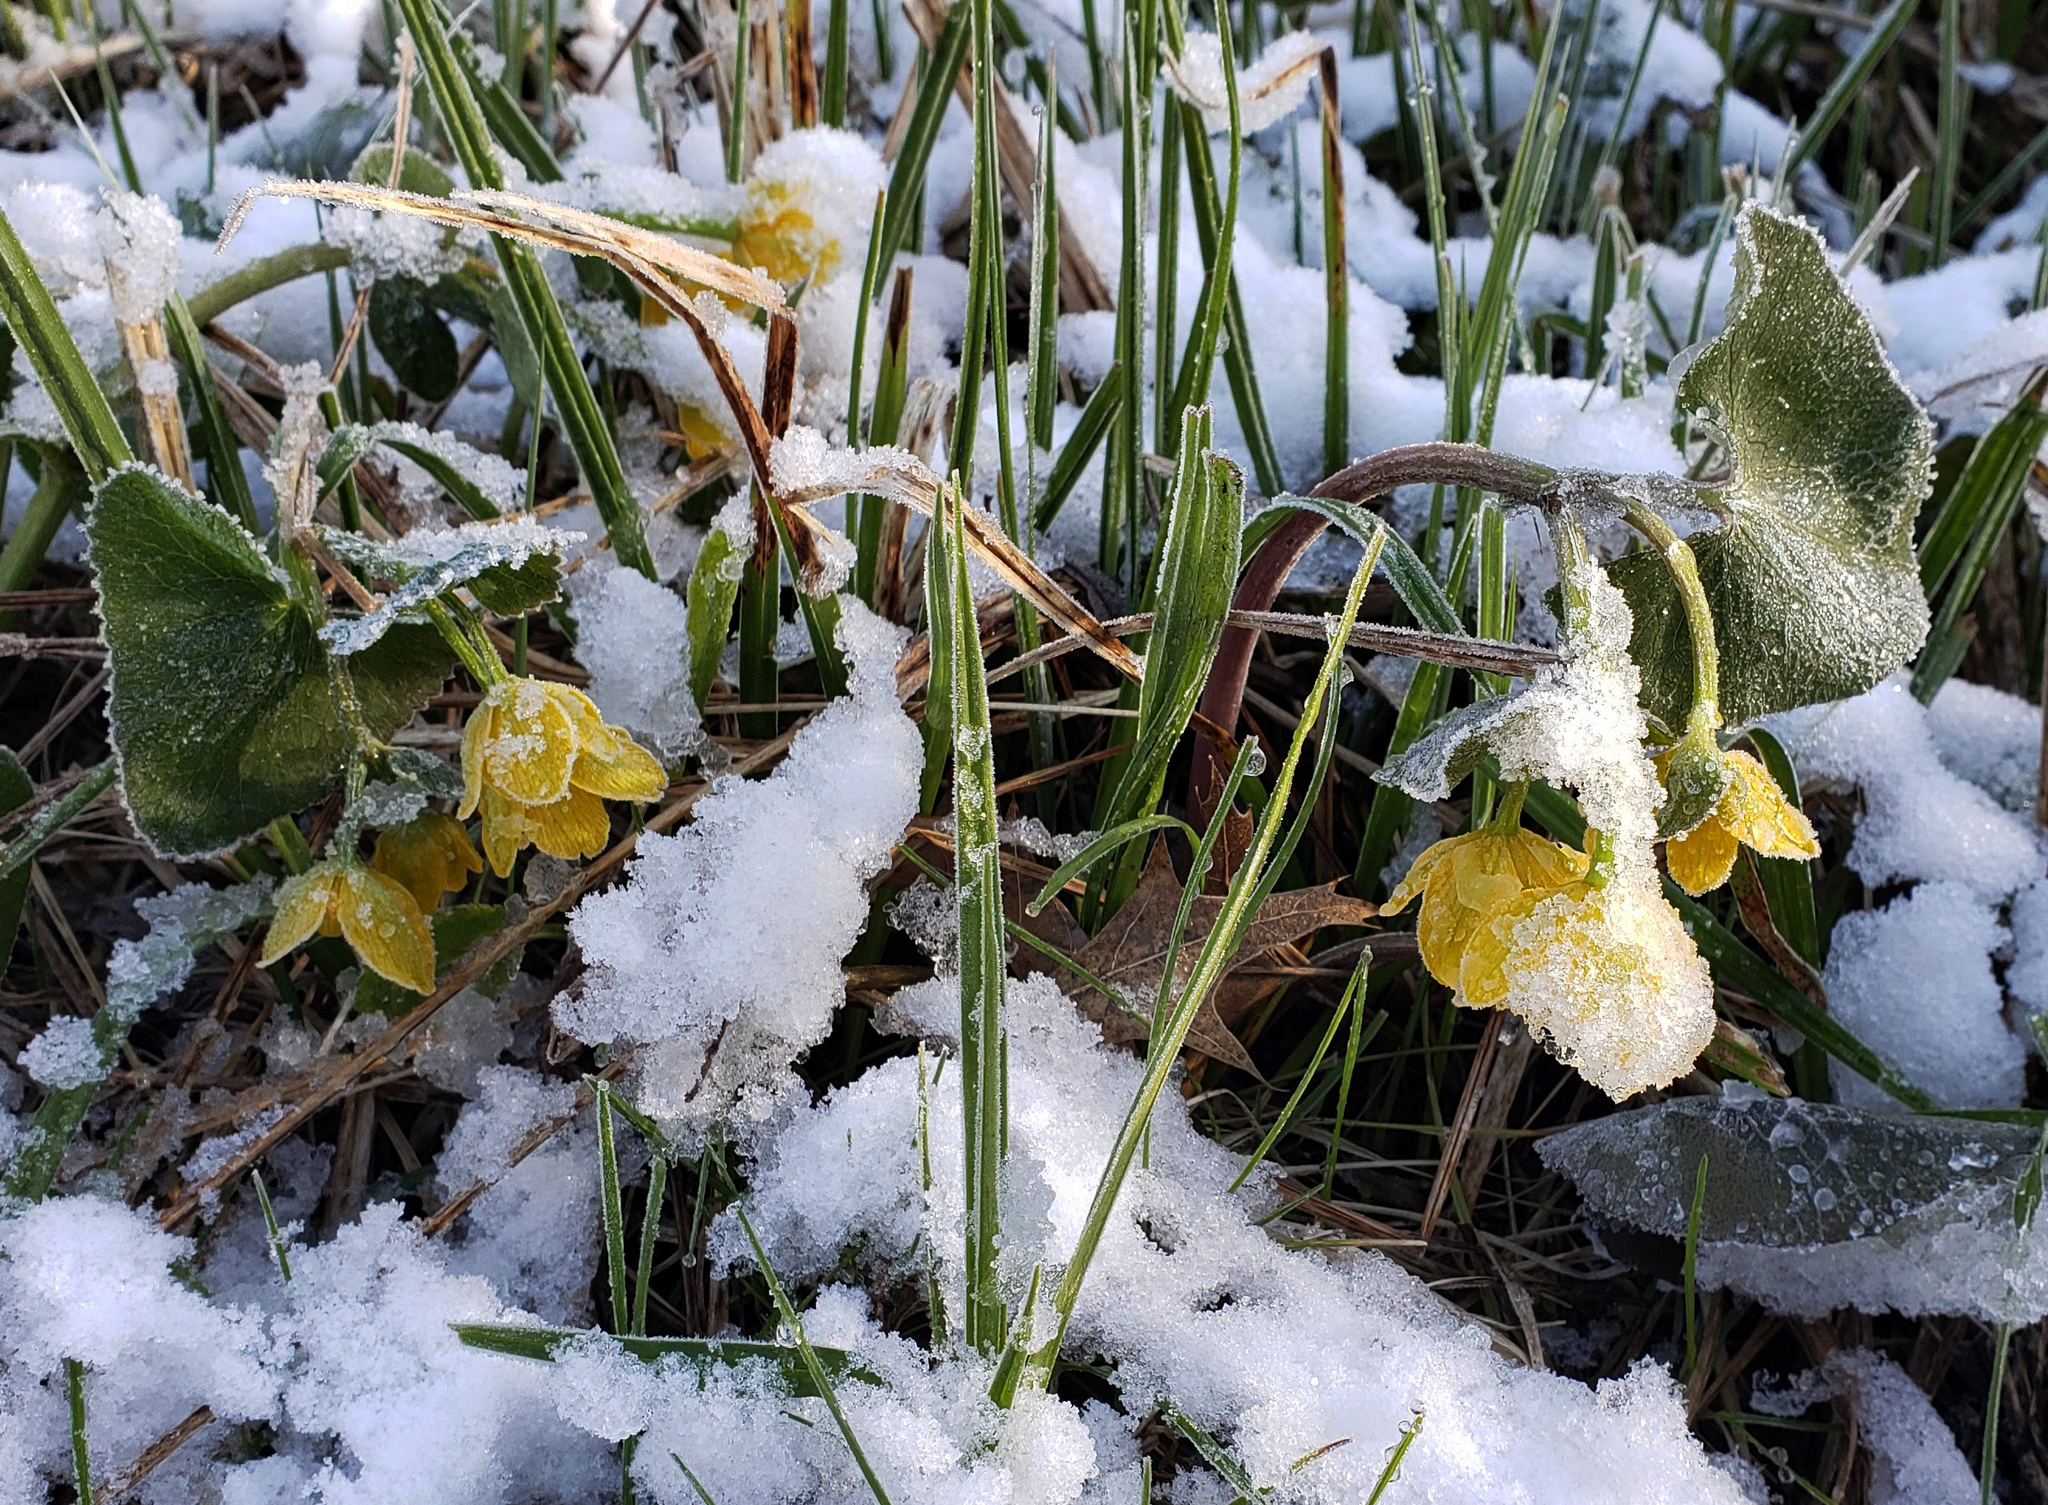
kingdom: Plantae
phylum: Tracheophyta
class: Magnoliopsida
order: Ranunculales
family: Ranunculaceae
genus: Caltha
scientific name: Caltha palustris
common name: Marsh marigold
